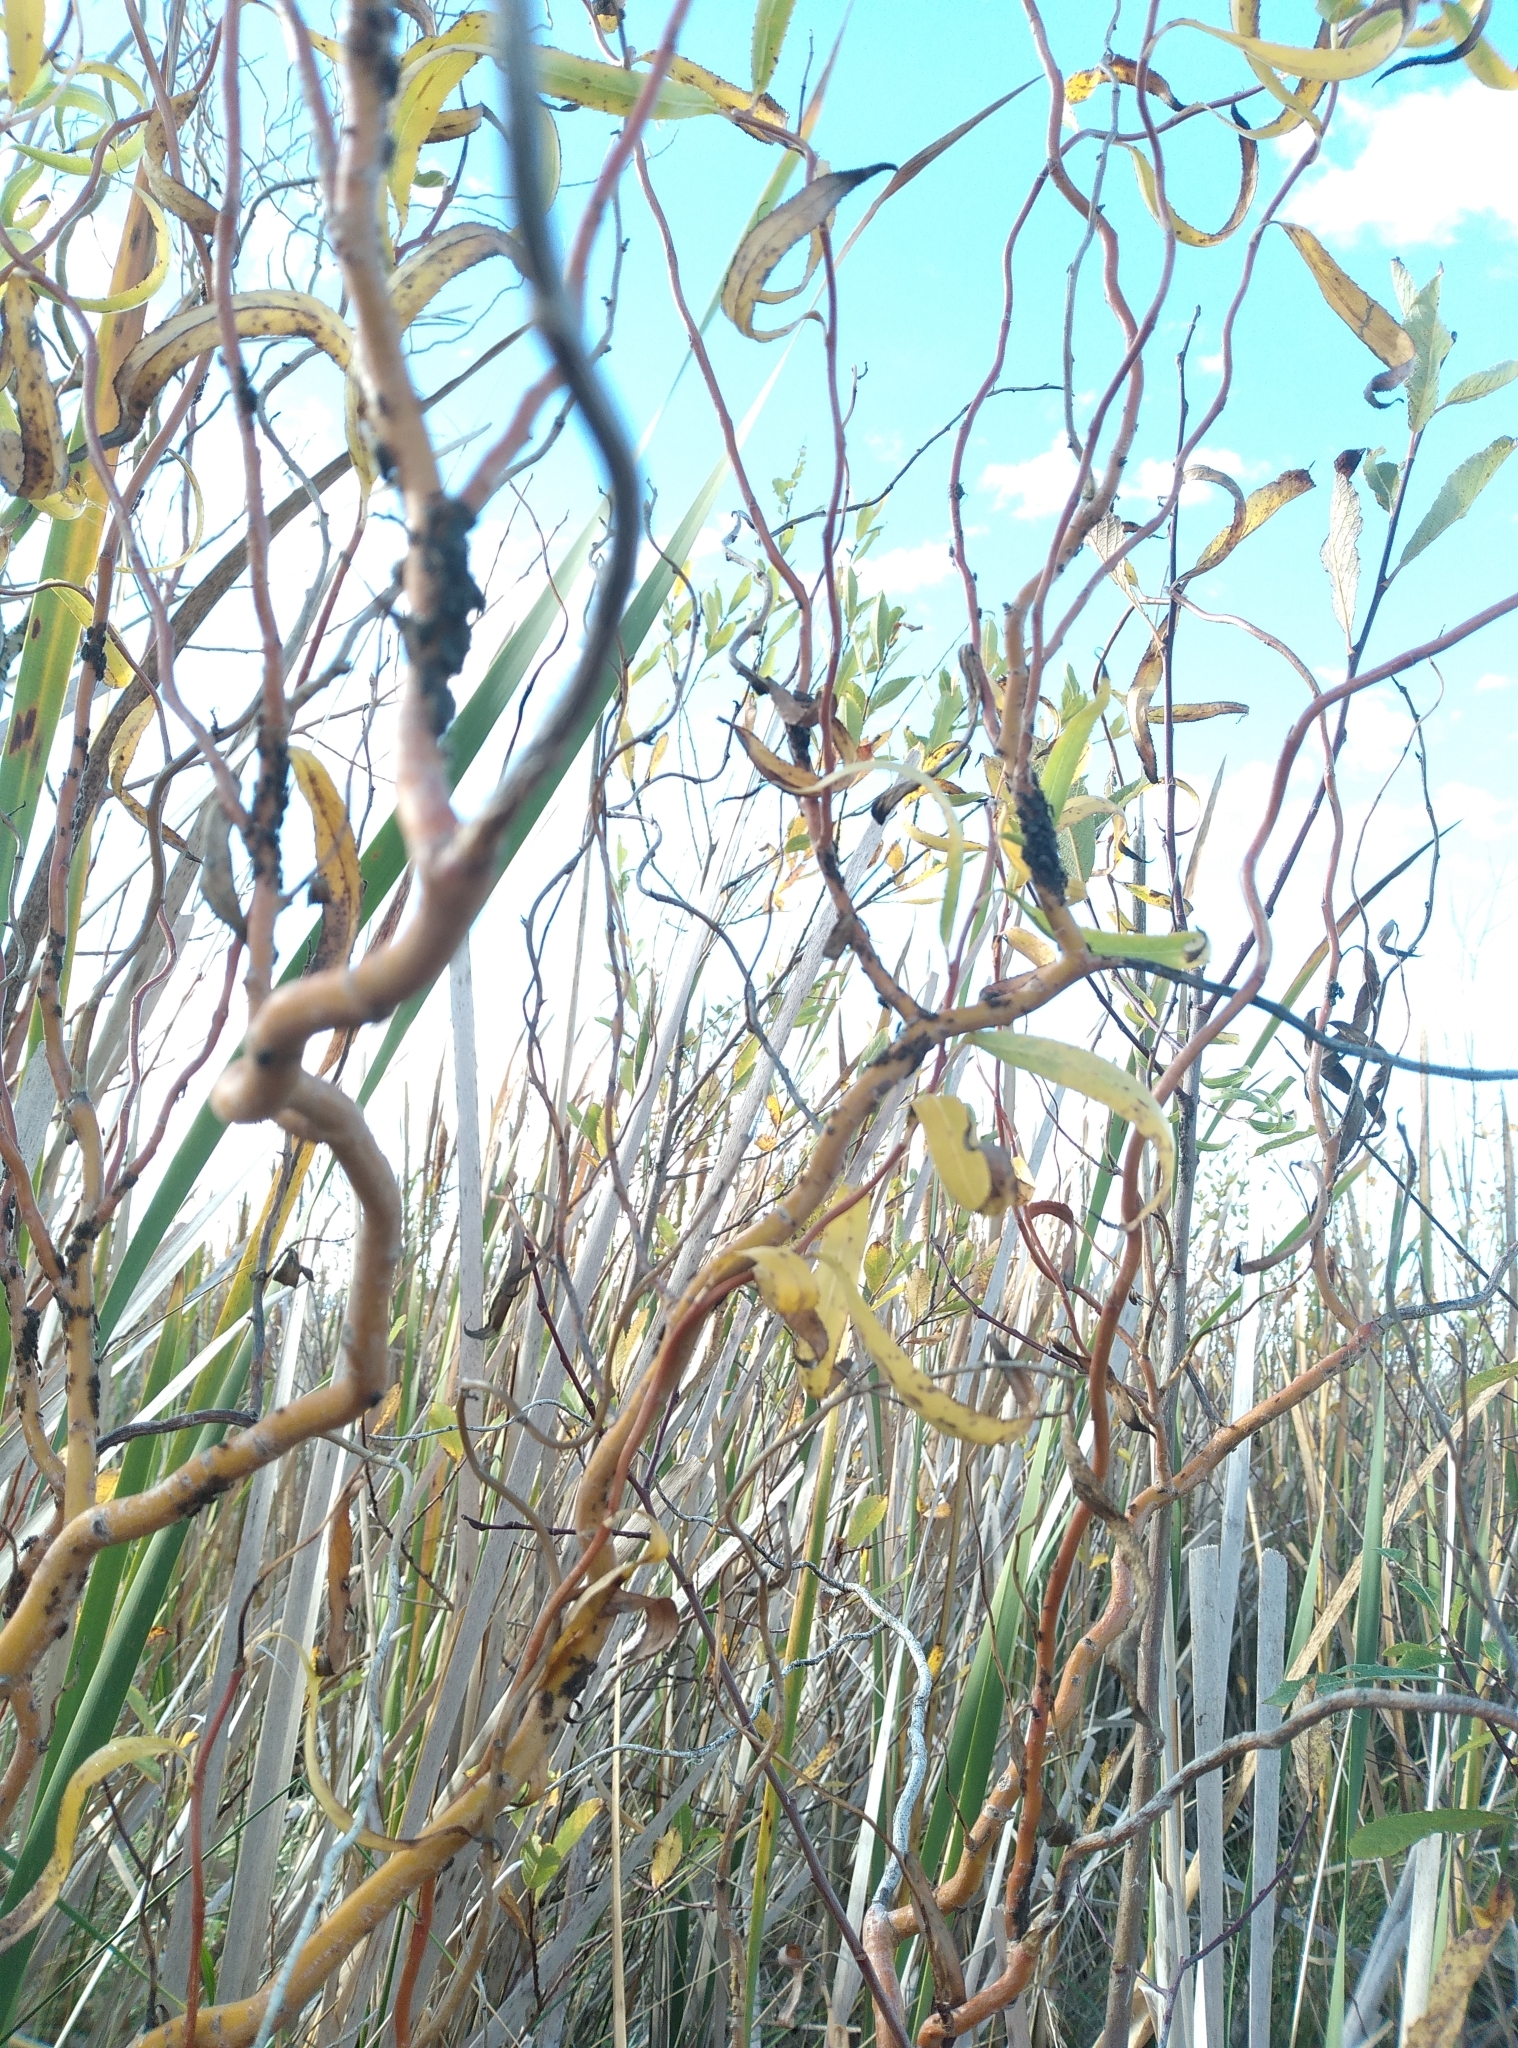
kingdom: Plantae
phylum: Tracheophyta
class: Magnoliopsida
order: Malpighiales
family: Salicaceae
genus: Salix
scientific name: Salix
